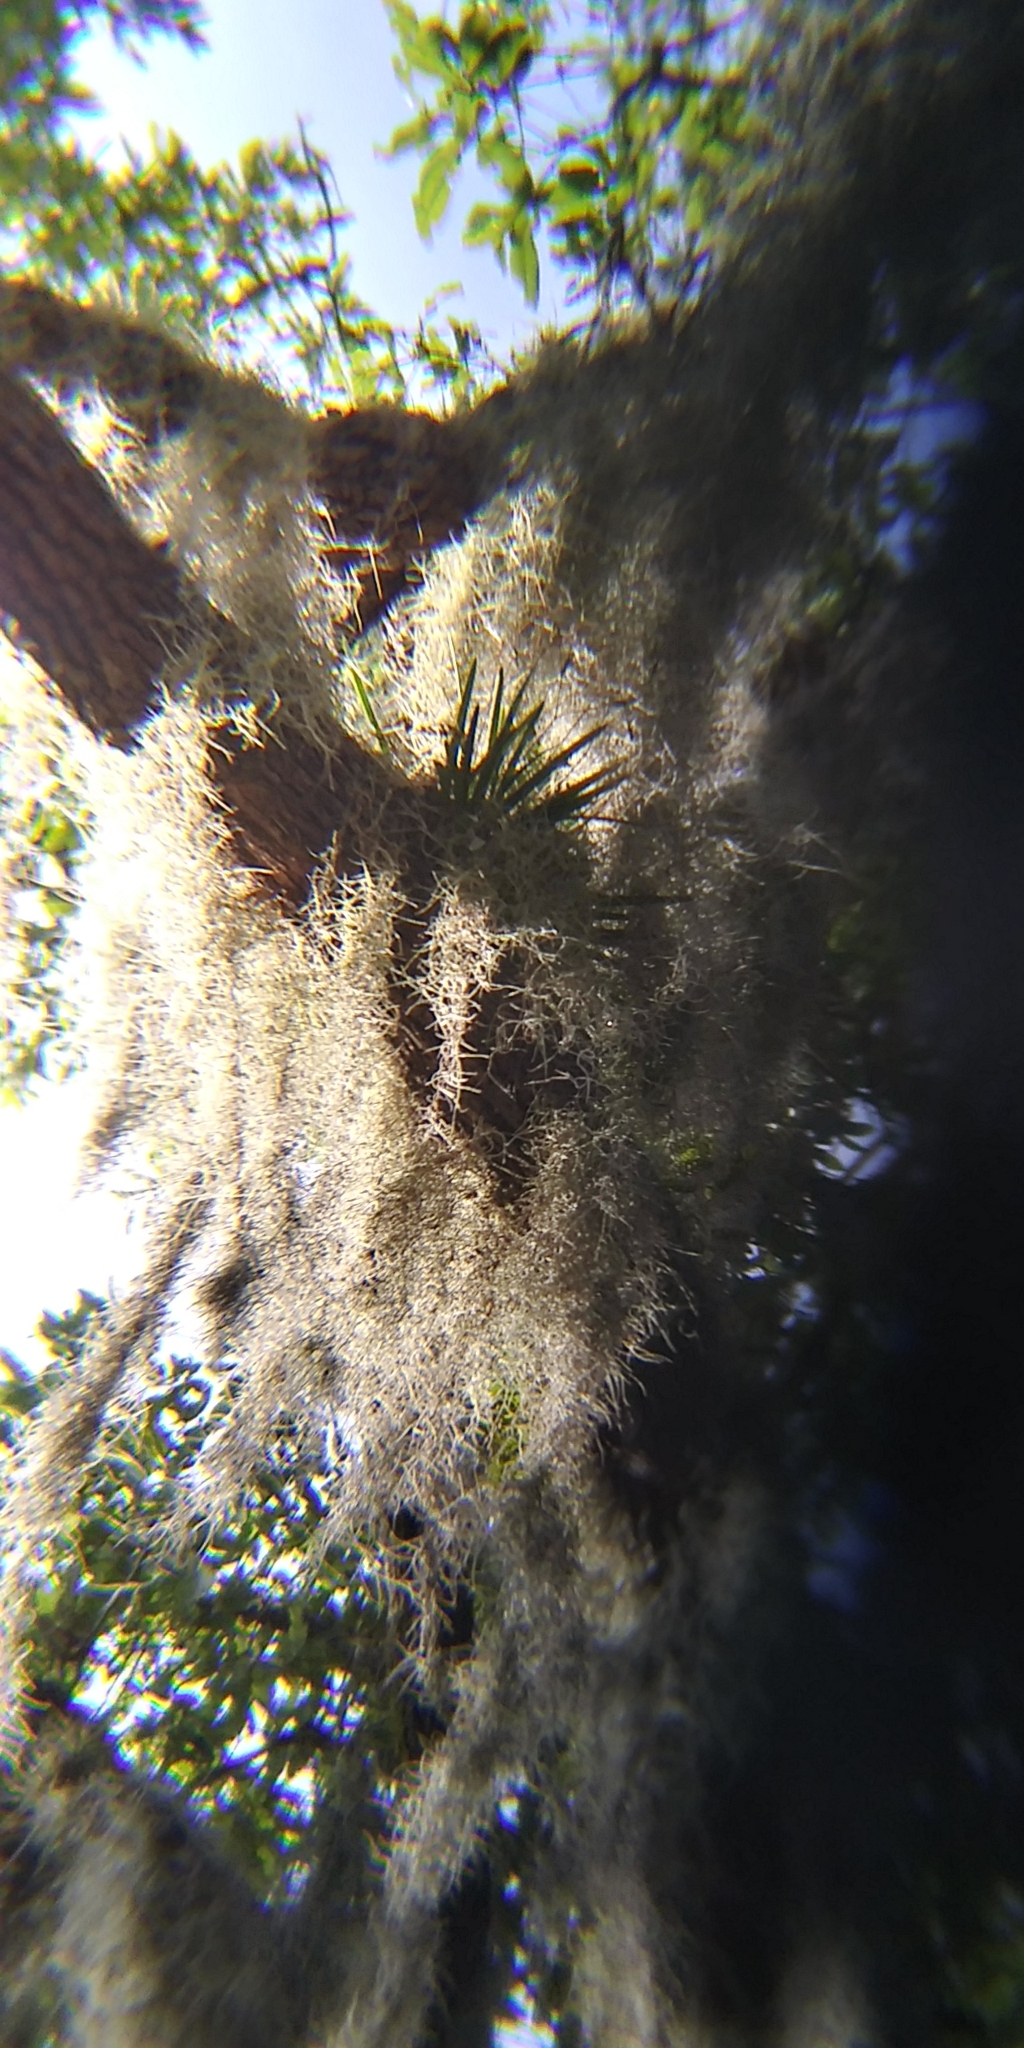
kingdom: Plantae
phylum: Tracheophyta
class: Liliopsida
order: Asparagales
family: Orchidaceae
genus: Encyclia
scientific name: Encyclia tampensis
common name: Florida butterfly orchid
